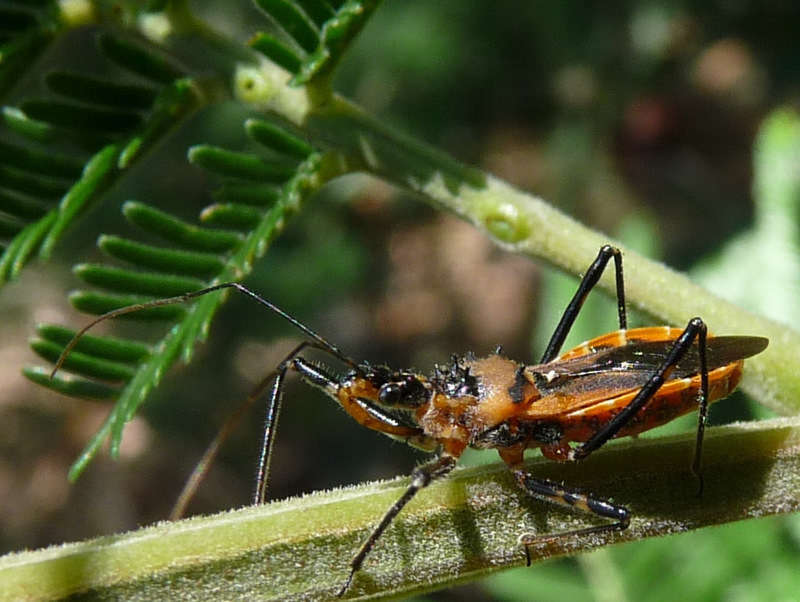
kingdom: Animalia
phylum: Arthropoda
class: Insecta
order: Hemiptera
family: Reduviidae
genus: Gminatus
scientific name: Gminatus australis
